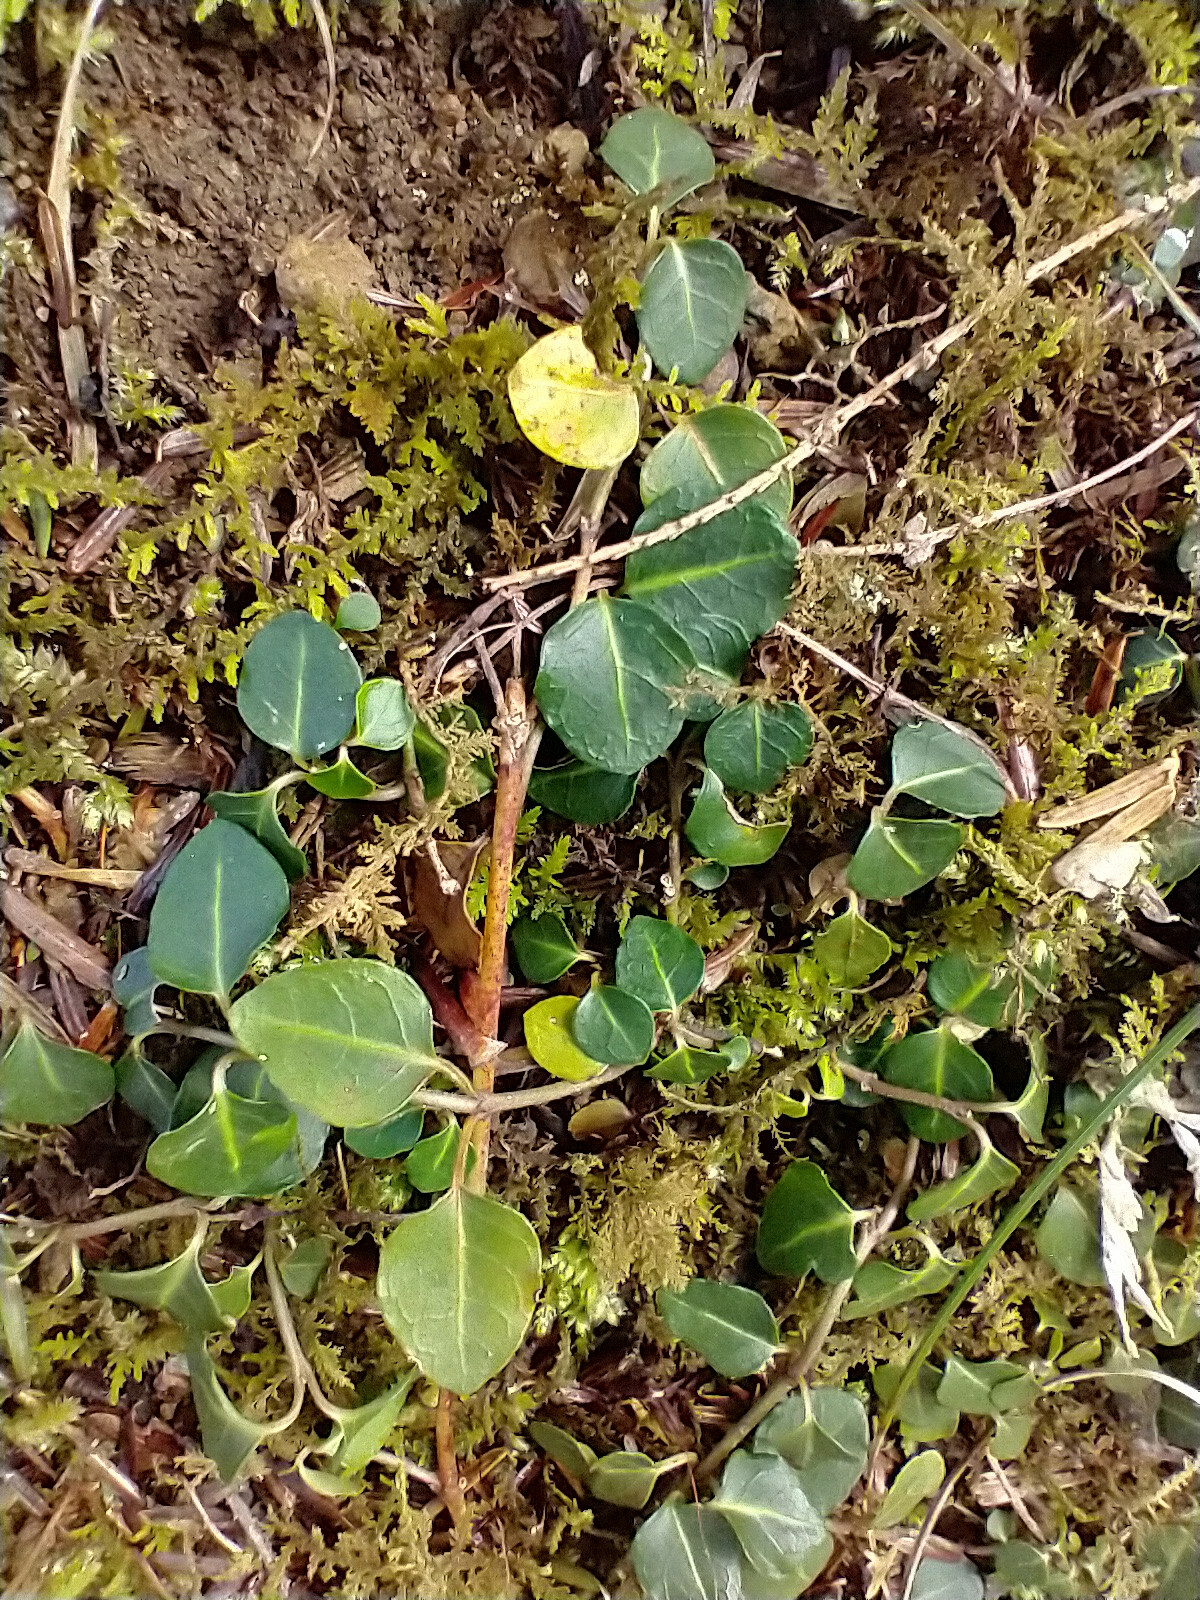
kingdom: Plantae
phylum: Tracheophyta
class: Magnoliopsida
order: Gentianales
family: Rubiaceae
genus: Mitchella
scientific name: Mitchella repens
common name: Partridge-berry
